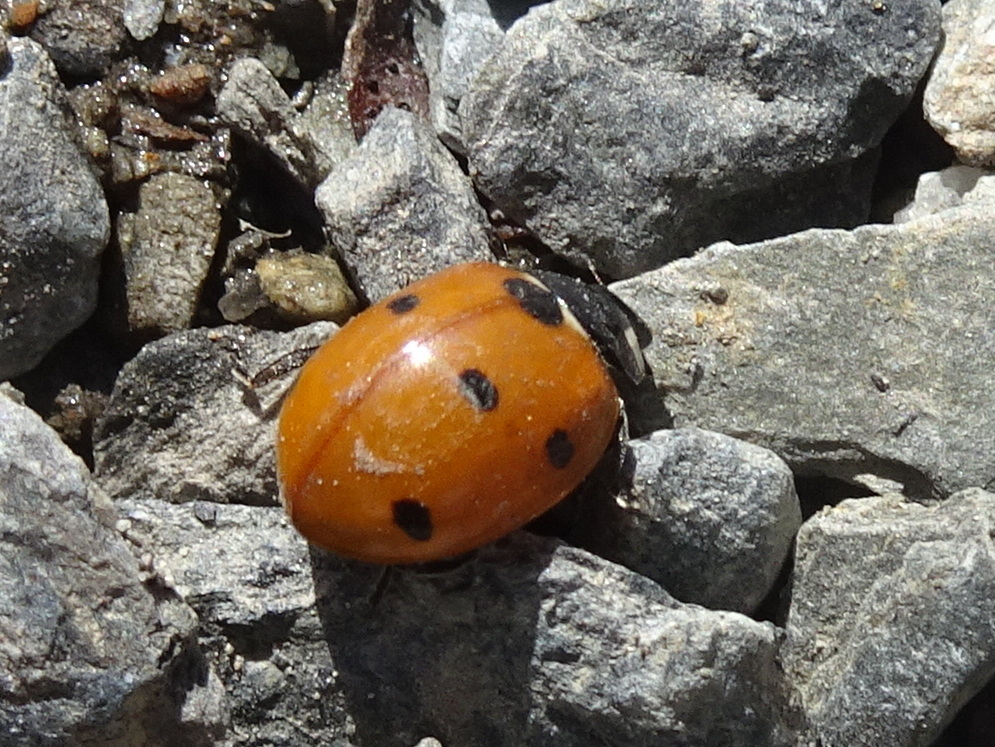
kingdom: Animalia
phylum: Arthropoda
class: Insecta
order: Coleoptera
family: Coccinellidae
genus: Coccinella
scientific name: Coccinella septempunctata
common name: Sevenspotted lady beetle
